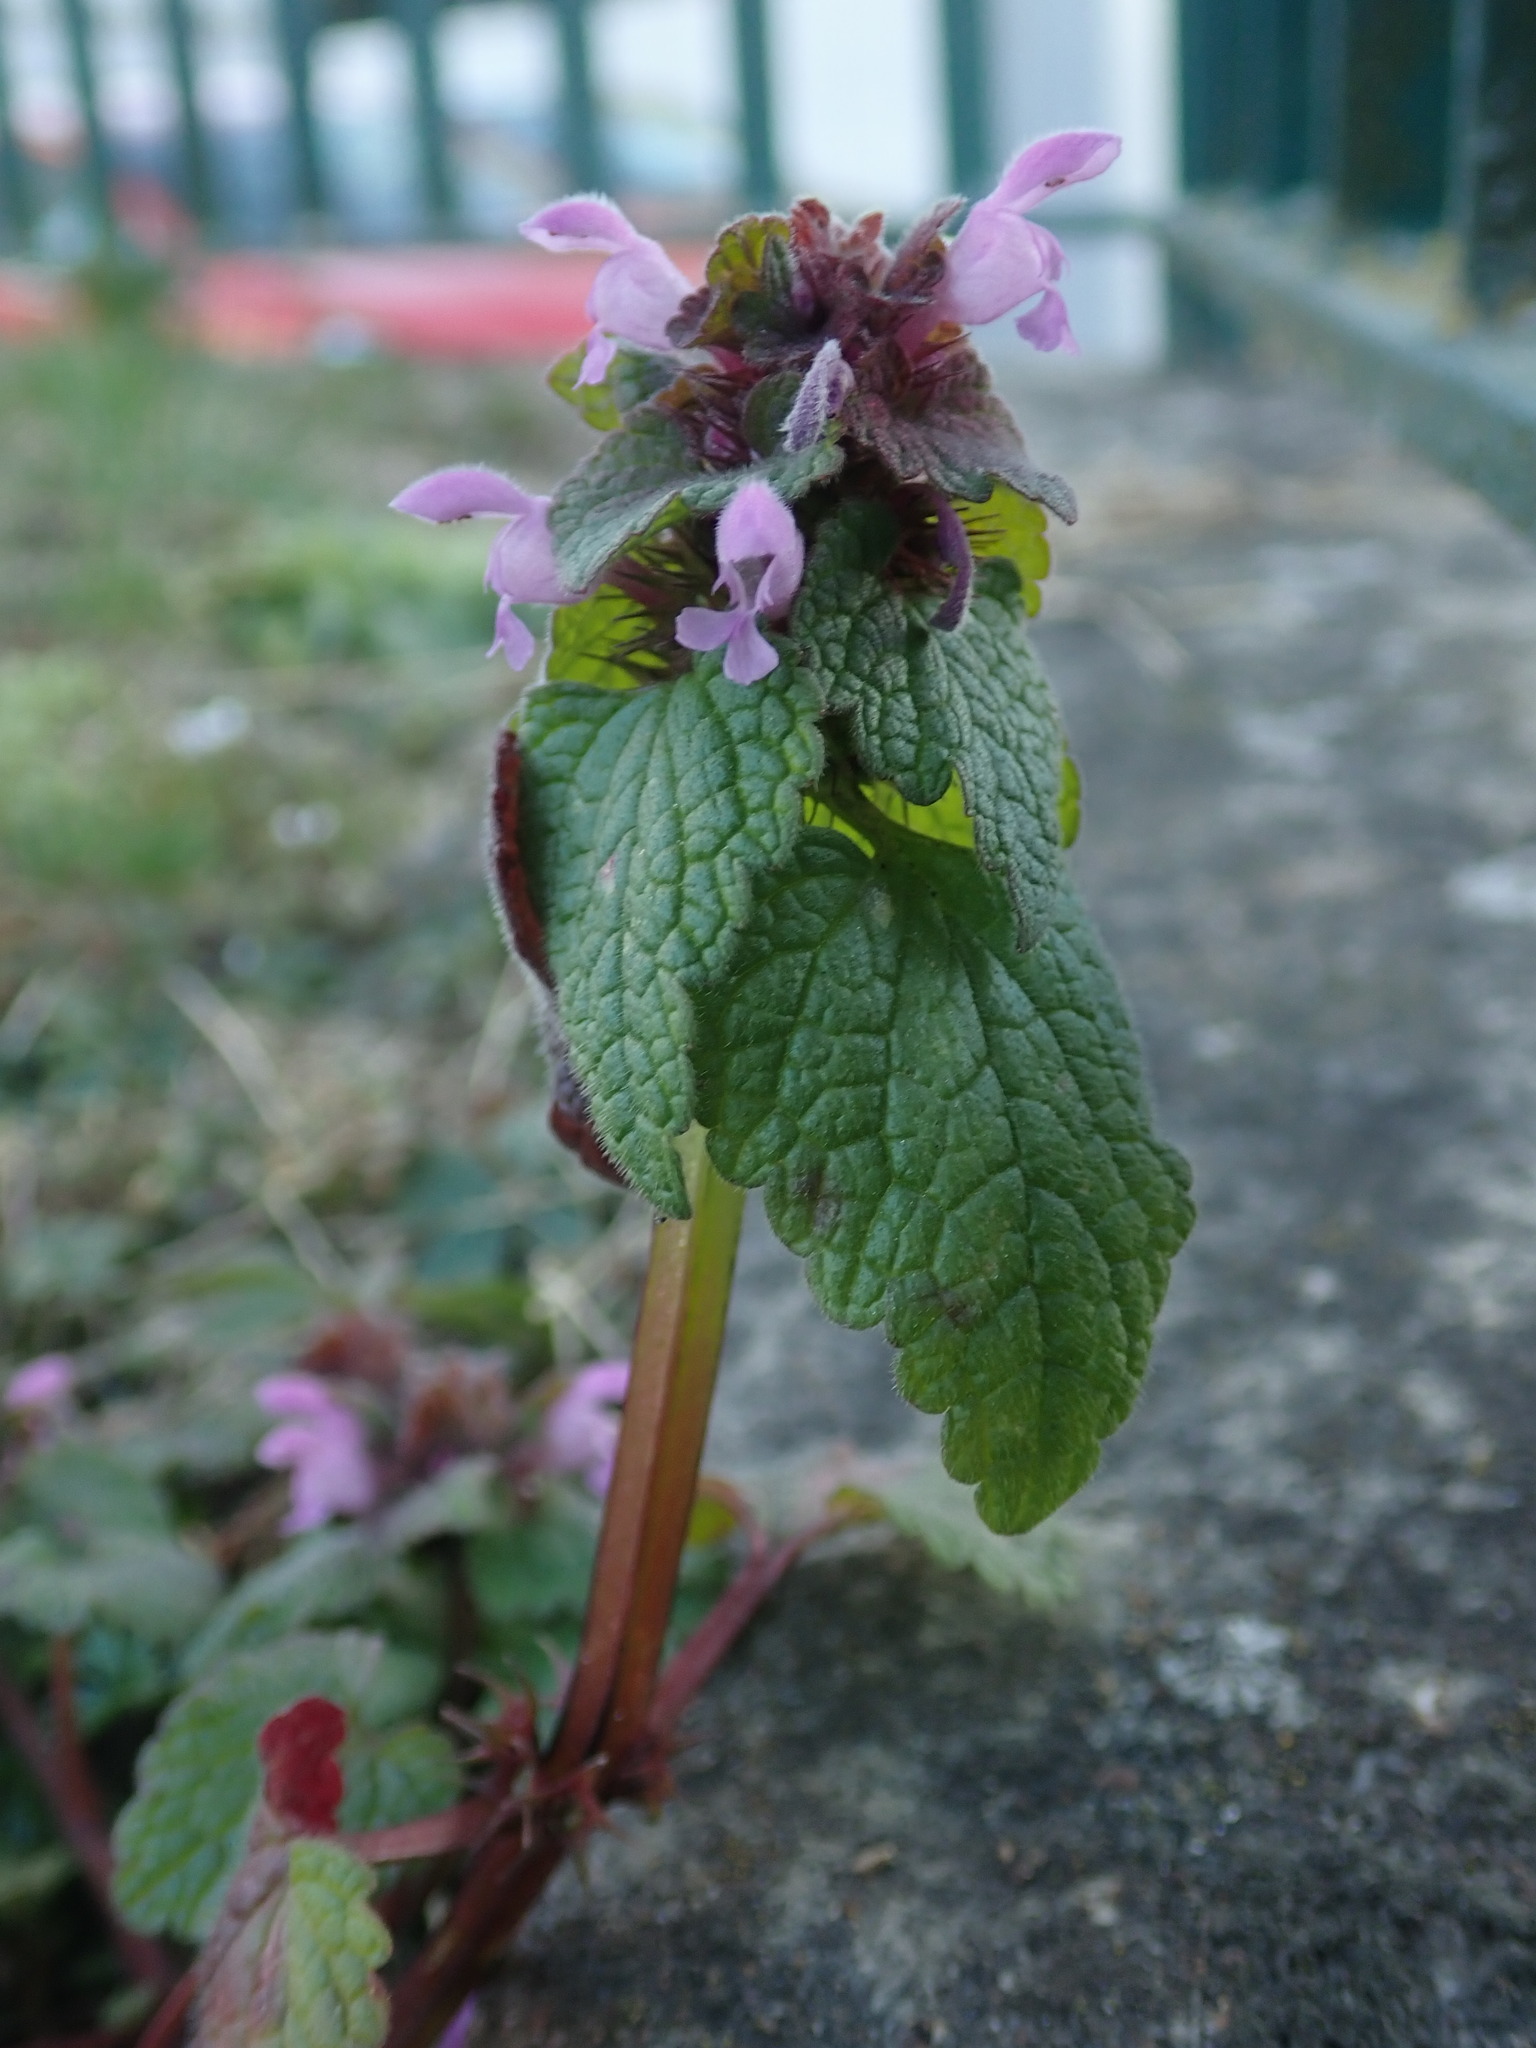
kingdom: Plantae
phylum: Tracheophyta
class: Magnoliopsida
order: Lamiales
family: Lamiaceae
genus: Lamium
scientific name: Lamium purpureum
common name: Red dead-nettle
